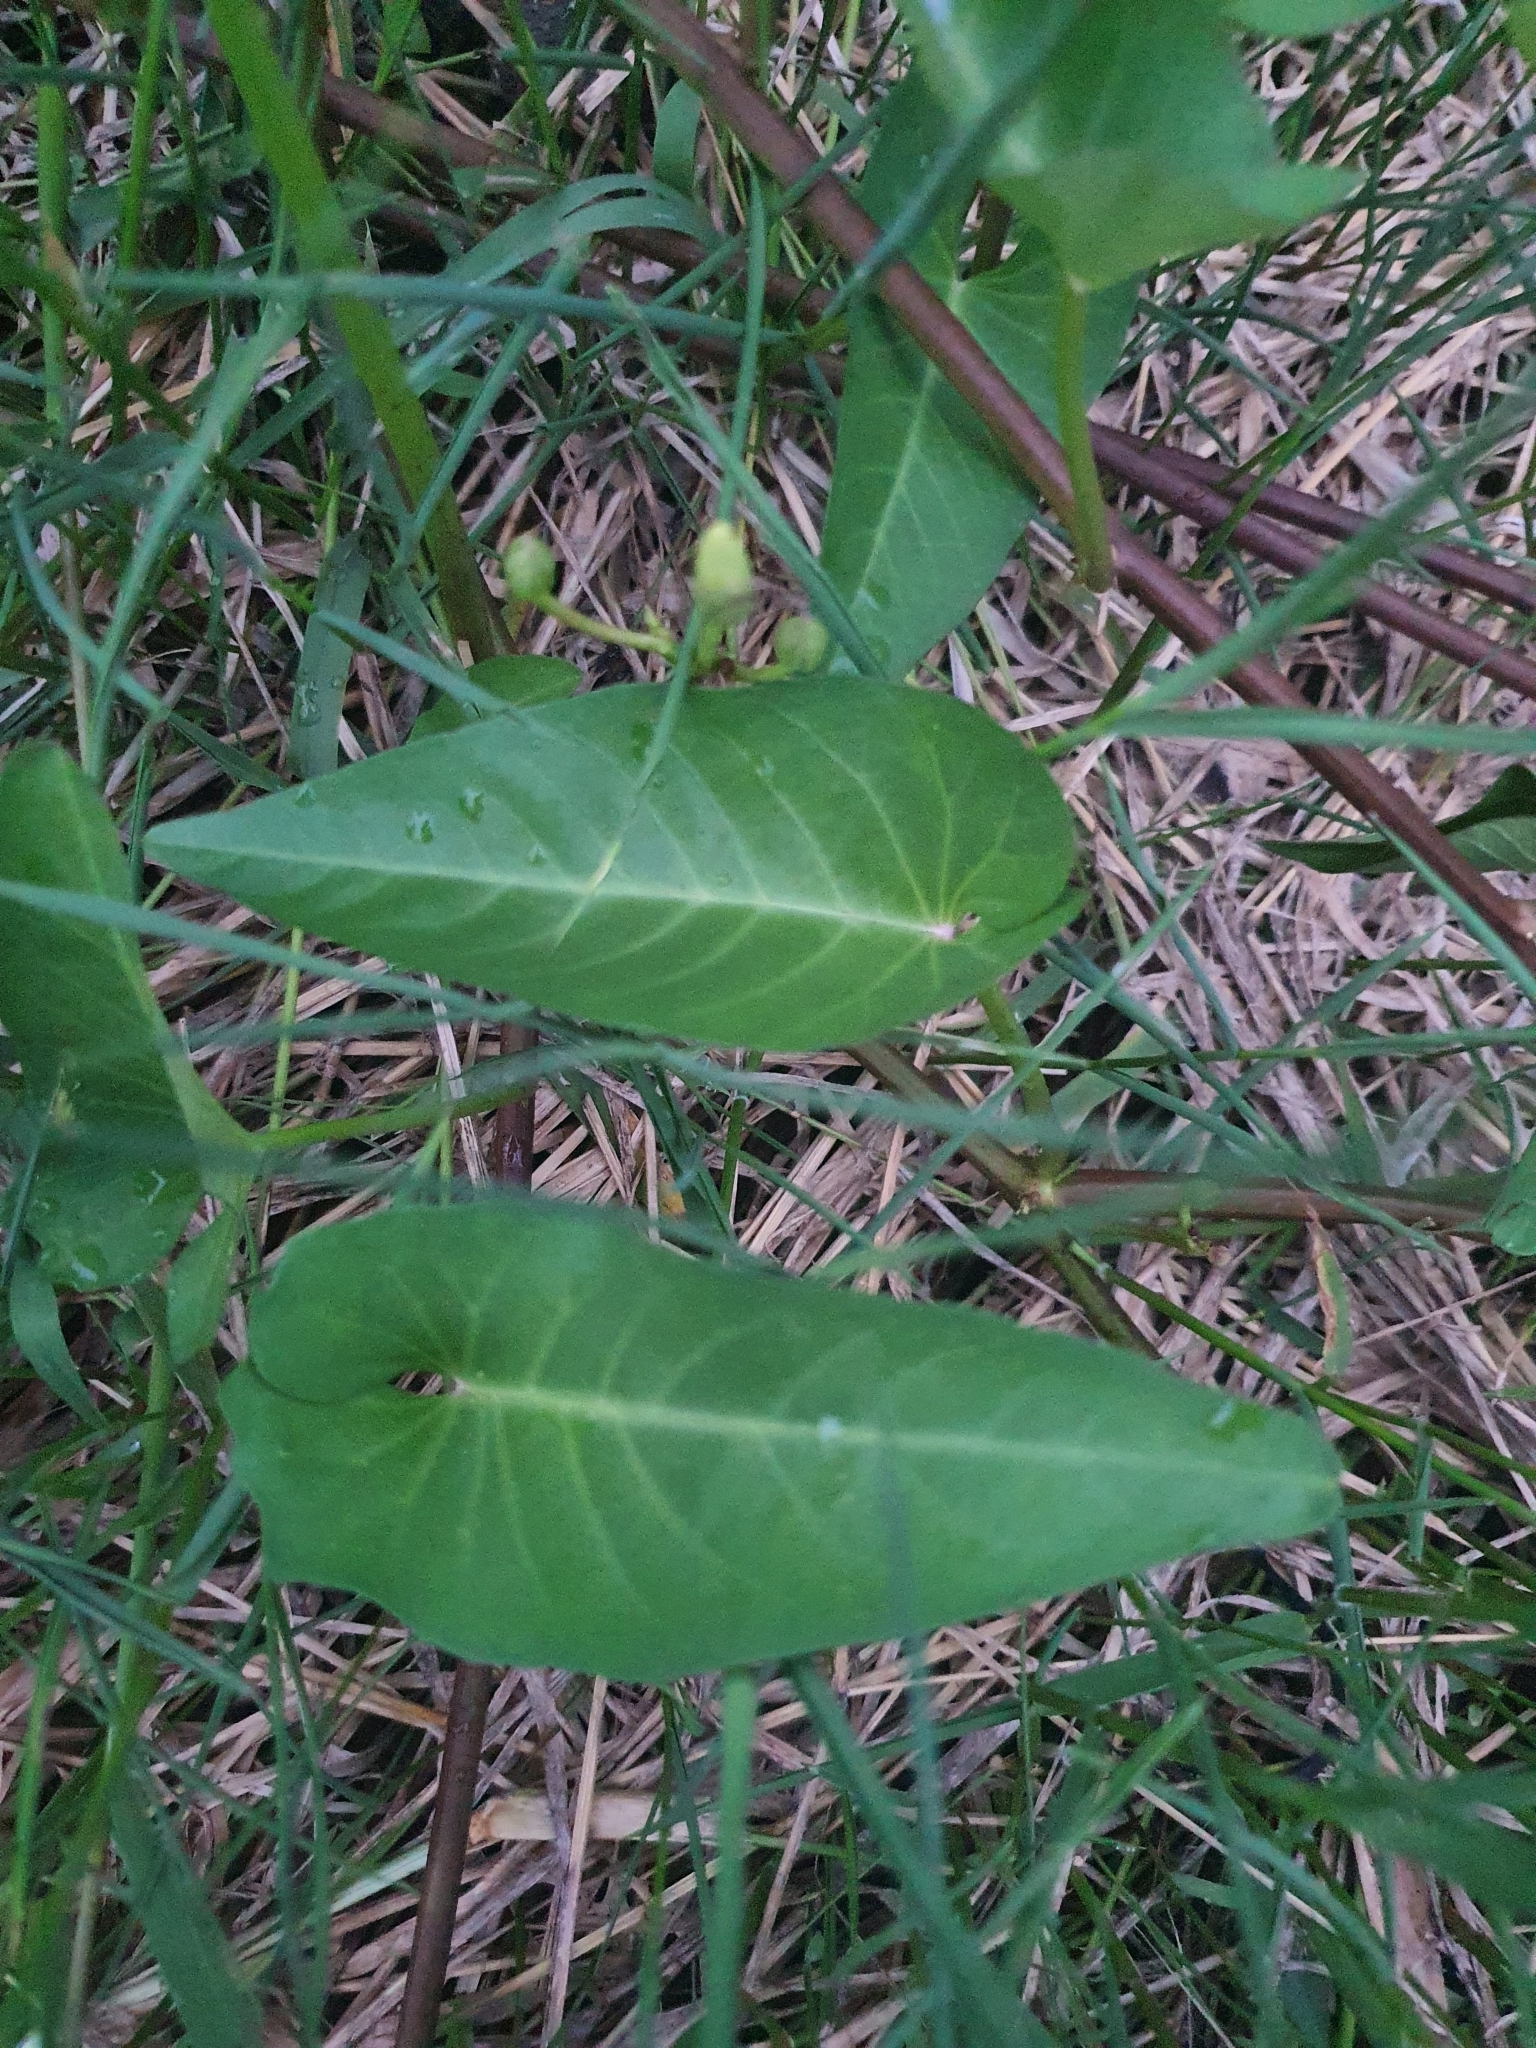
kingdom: Plantae
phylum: Tracheophyta
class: Magnoliopsida
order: Solanales
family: Convolvulaceae
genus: Ipomoea
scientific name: Ipomoea aquatica
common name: Swamp morning-glory
